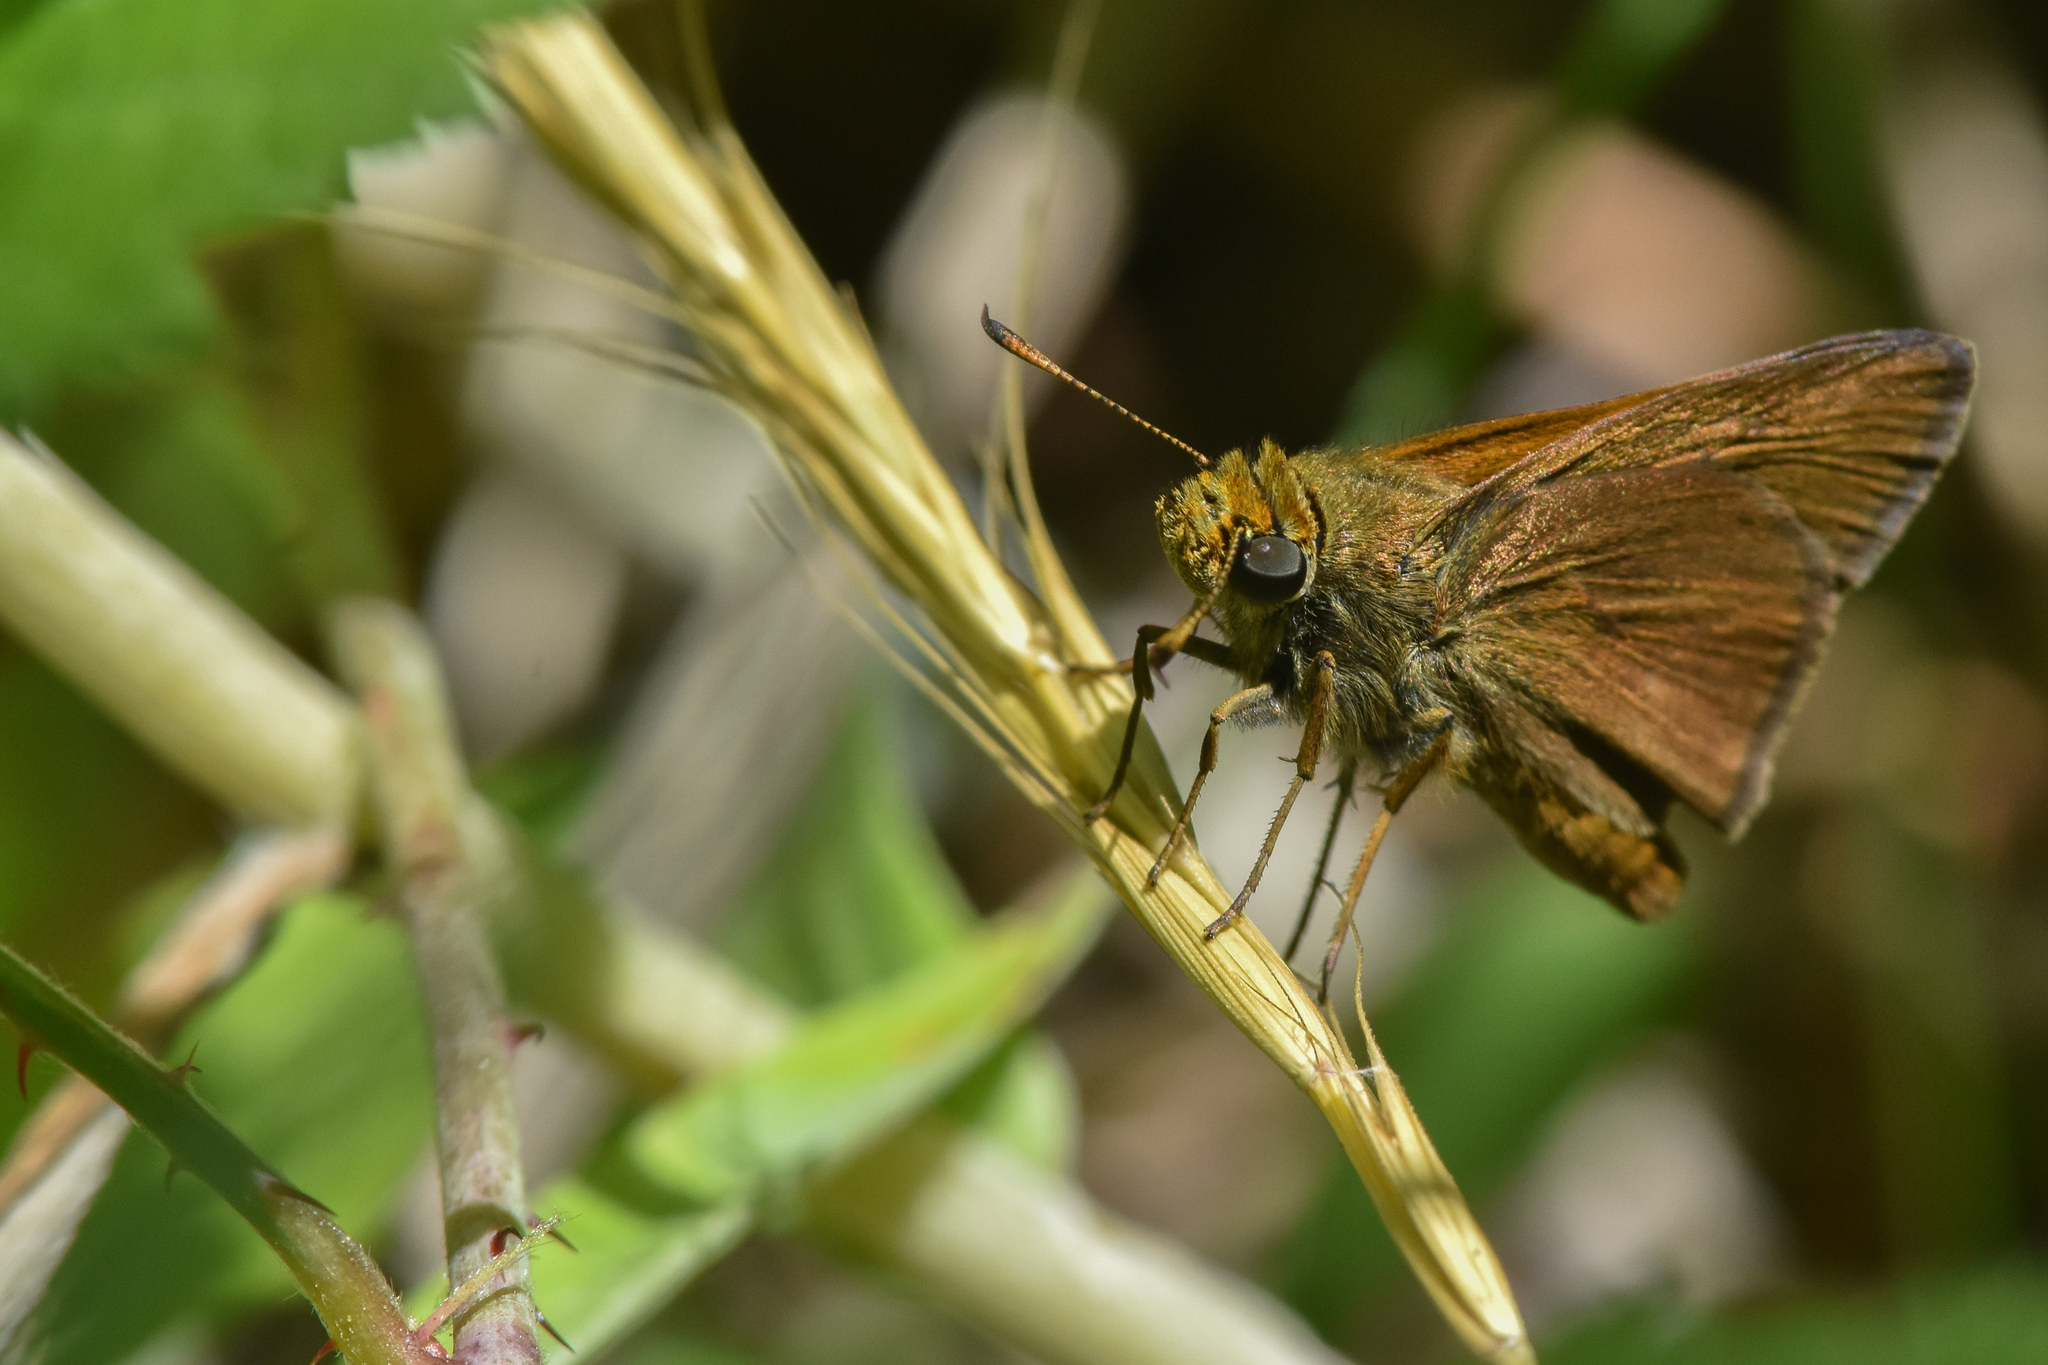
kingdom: Animalia
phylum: Arthropoda
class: Insecta
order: Lepidoptera
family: Hesperiidae
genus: Euphyes
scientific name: Euphyes vestris
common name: Dun skipper
